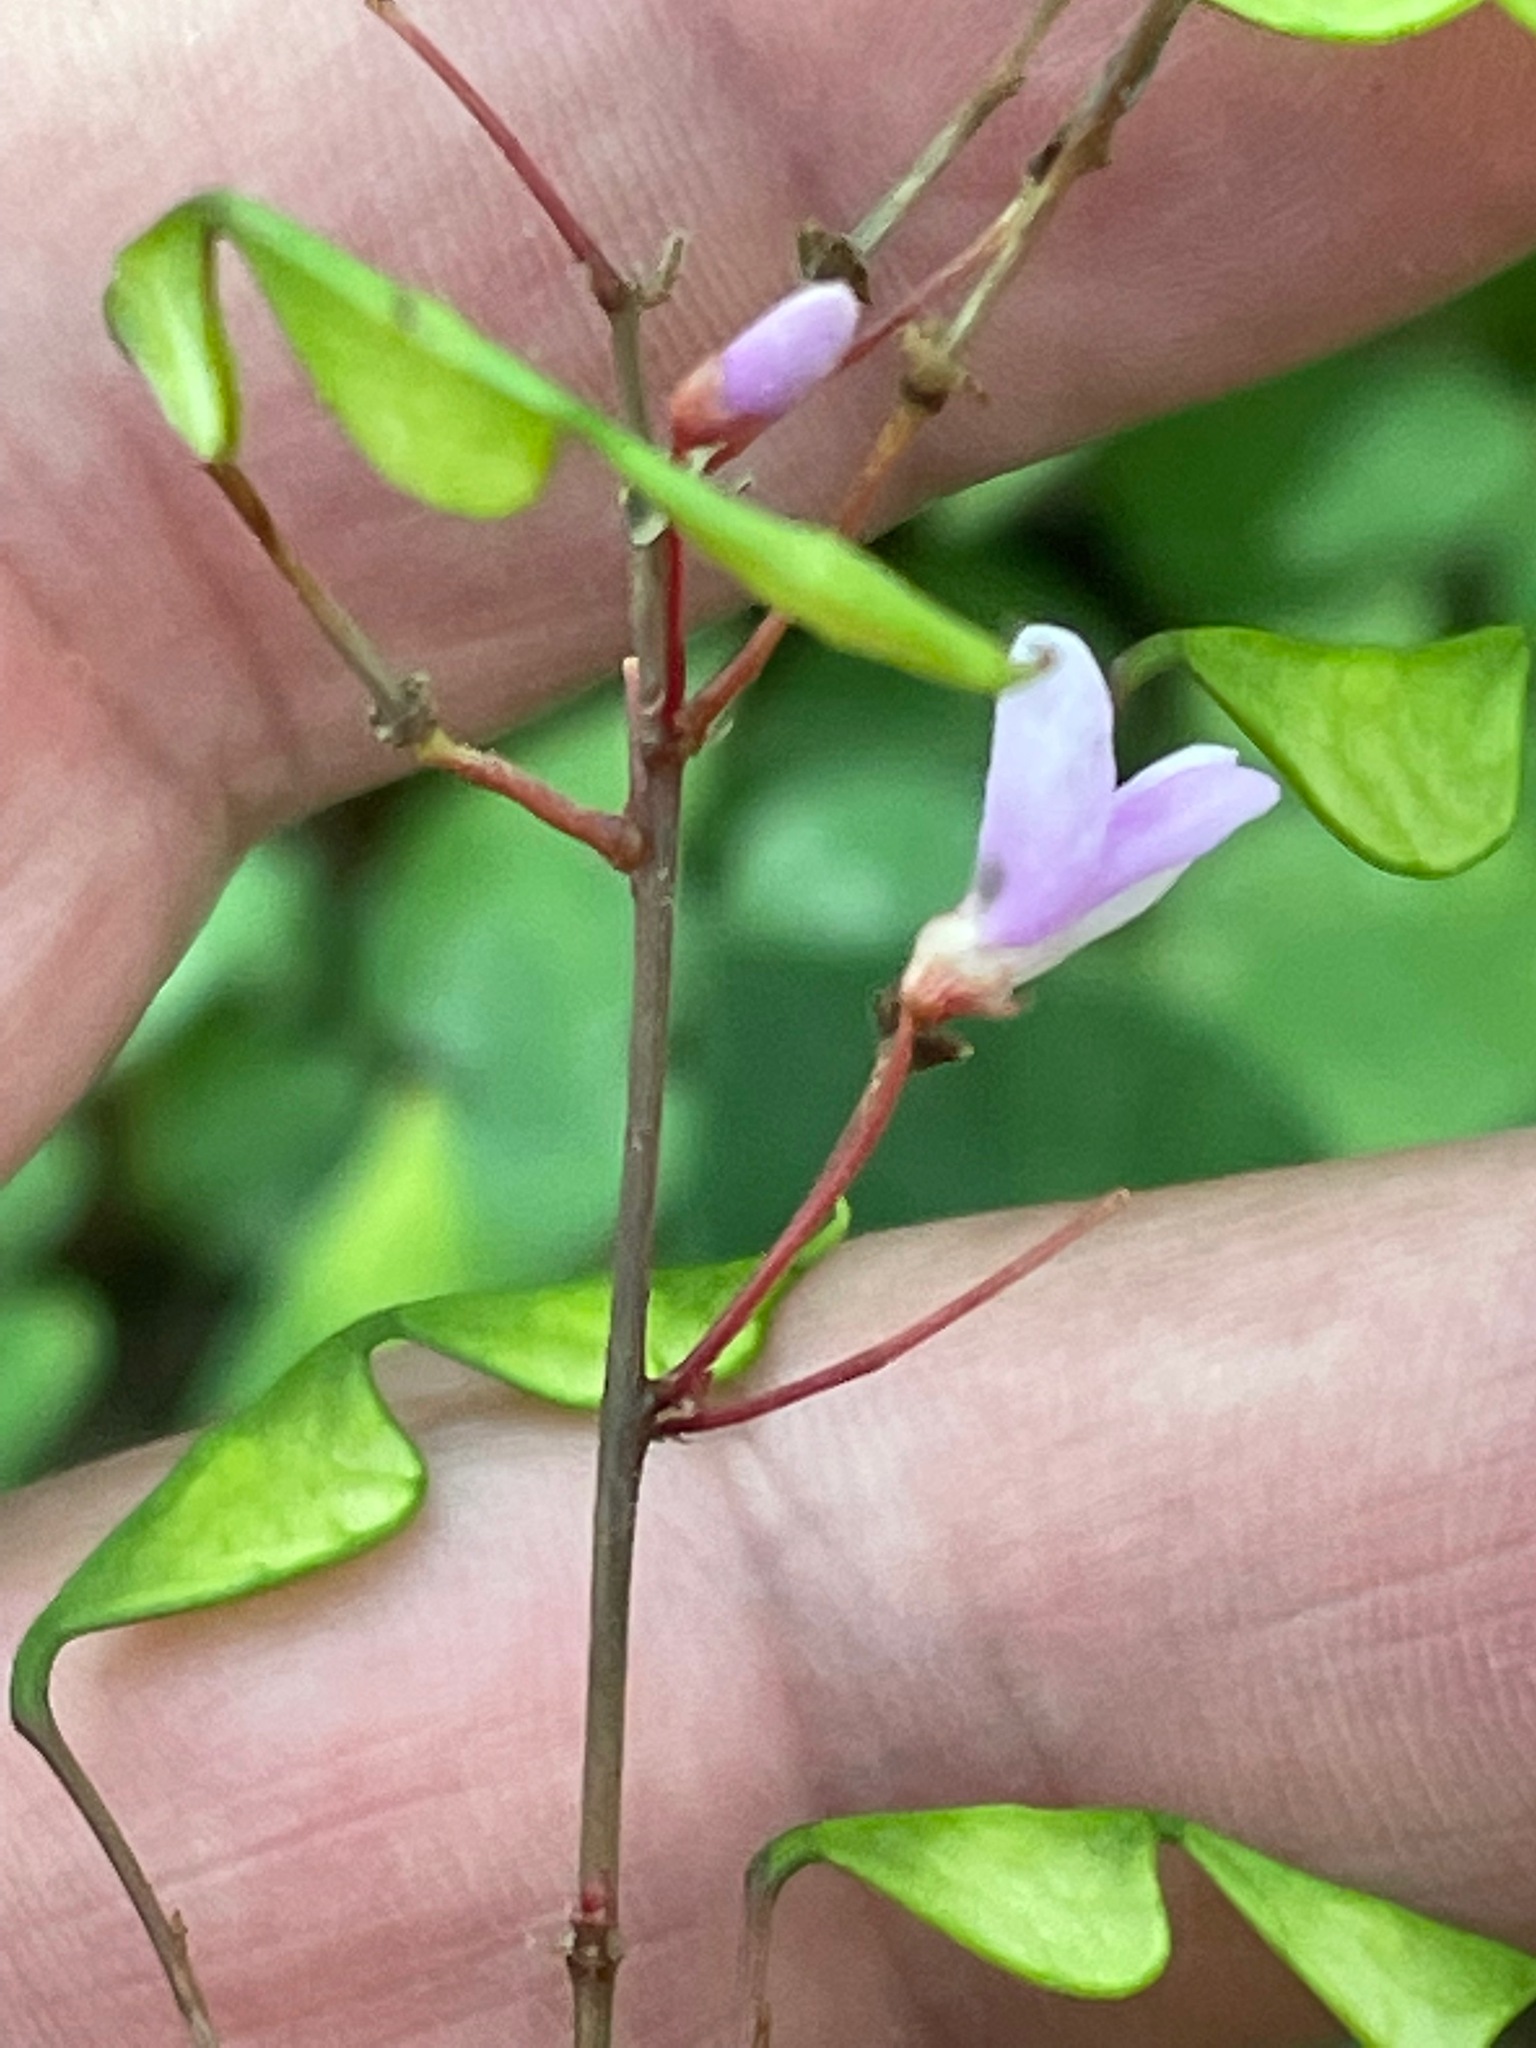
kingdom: Plantae
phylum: Tracheophyta
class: Magnoliopsida
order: Fabales
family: Fabaceae
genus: Hylodesmum
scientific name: Hylodesmum nudiflorum
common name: Bare-stemmed tick-trefoil
